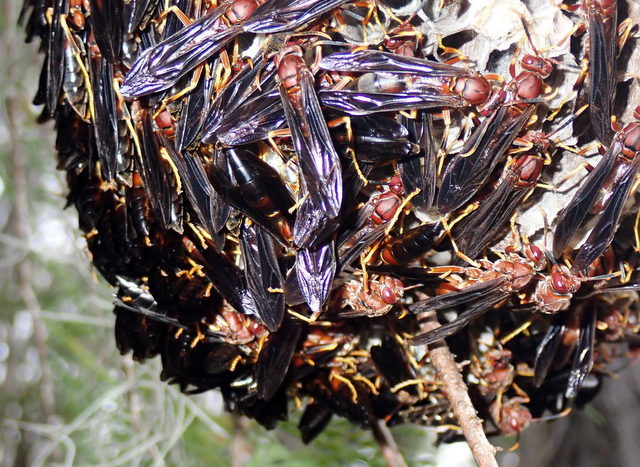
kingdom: Animalia
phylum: Arthropoda
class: Insecta
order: Hymenoptera
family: Eumenidae
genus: Polistes
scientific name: Polistes annularis
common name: Ringed paper wasp
